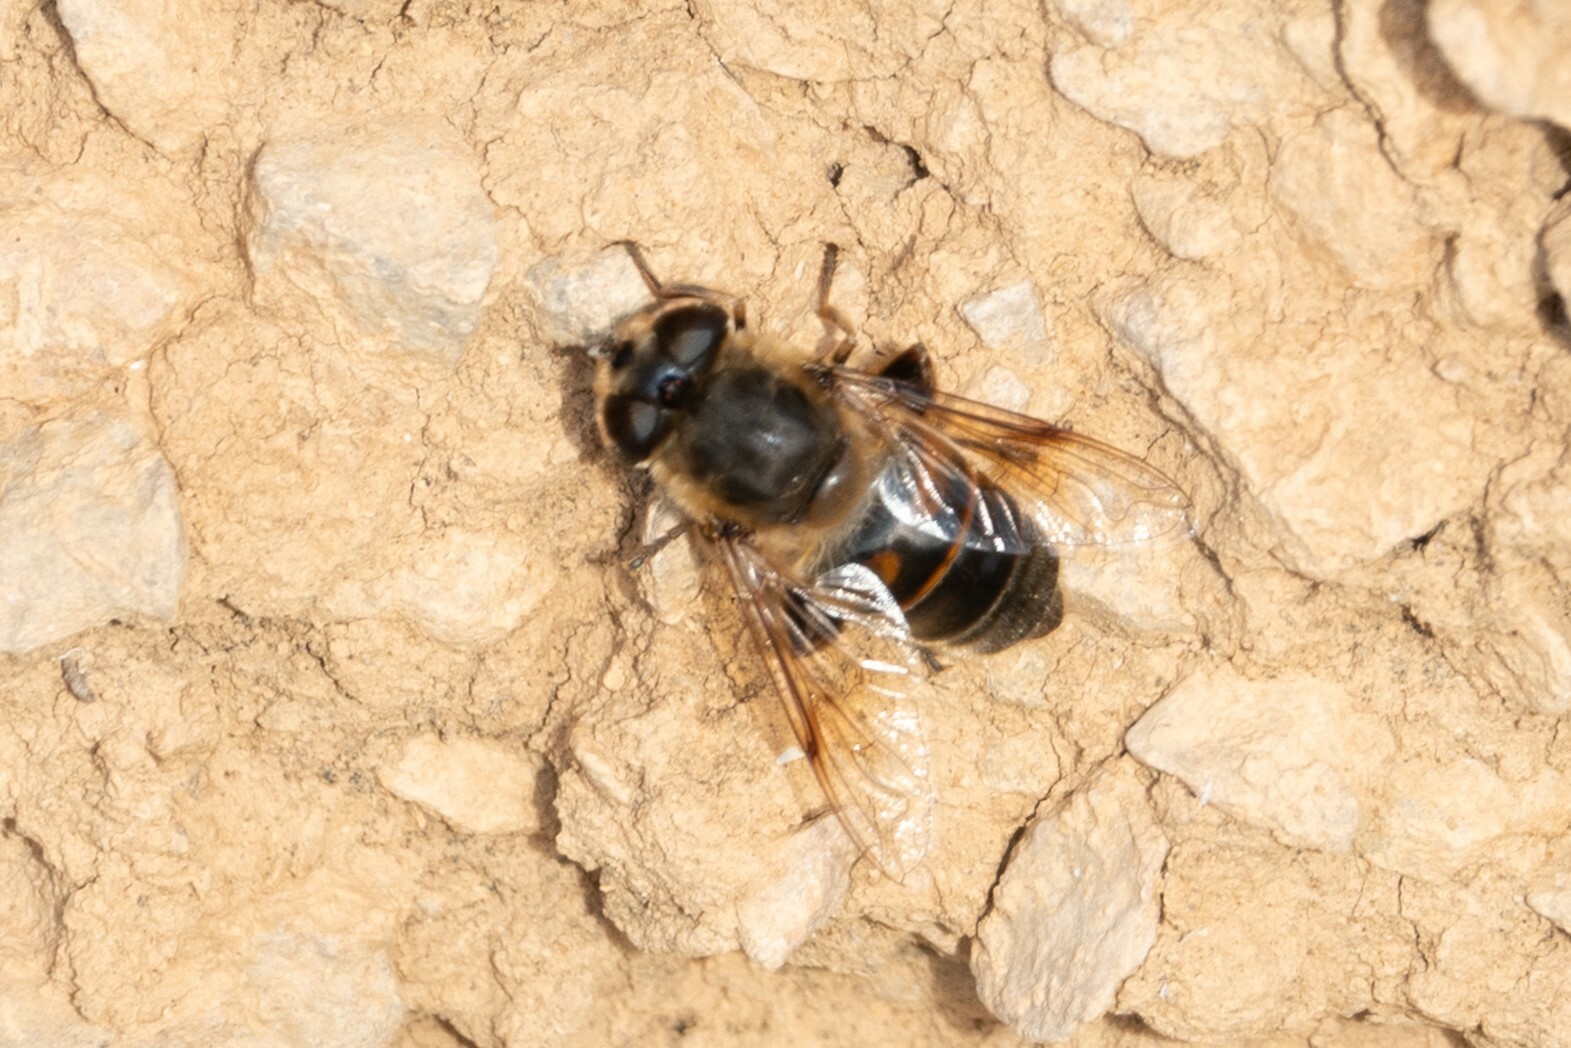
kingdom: Animalia
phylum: Arthropoda
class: Insecta
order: Diptera
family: Syrphidae
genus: Eristalis
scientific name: Eristalis tenax
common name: Drone fly
